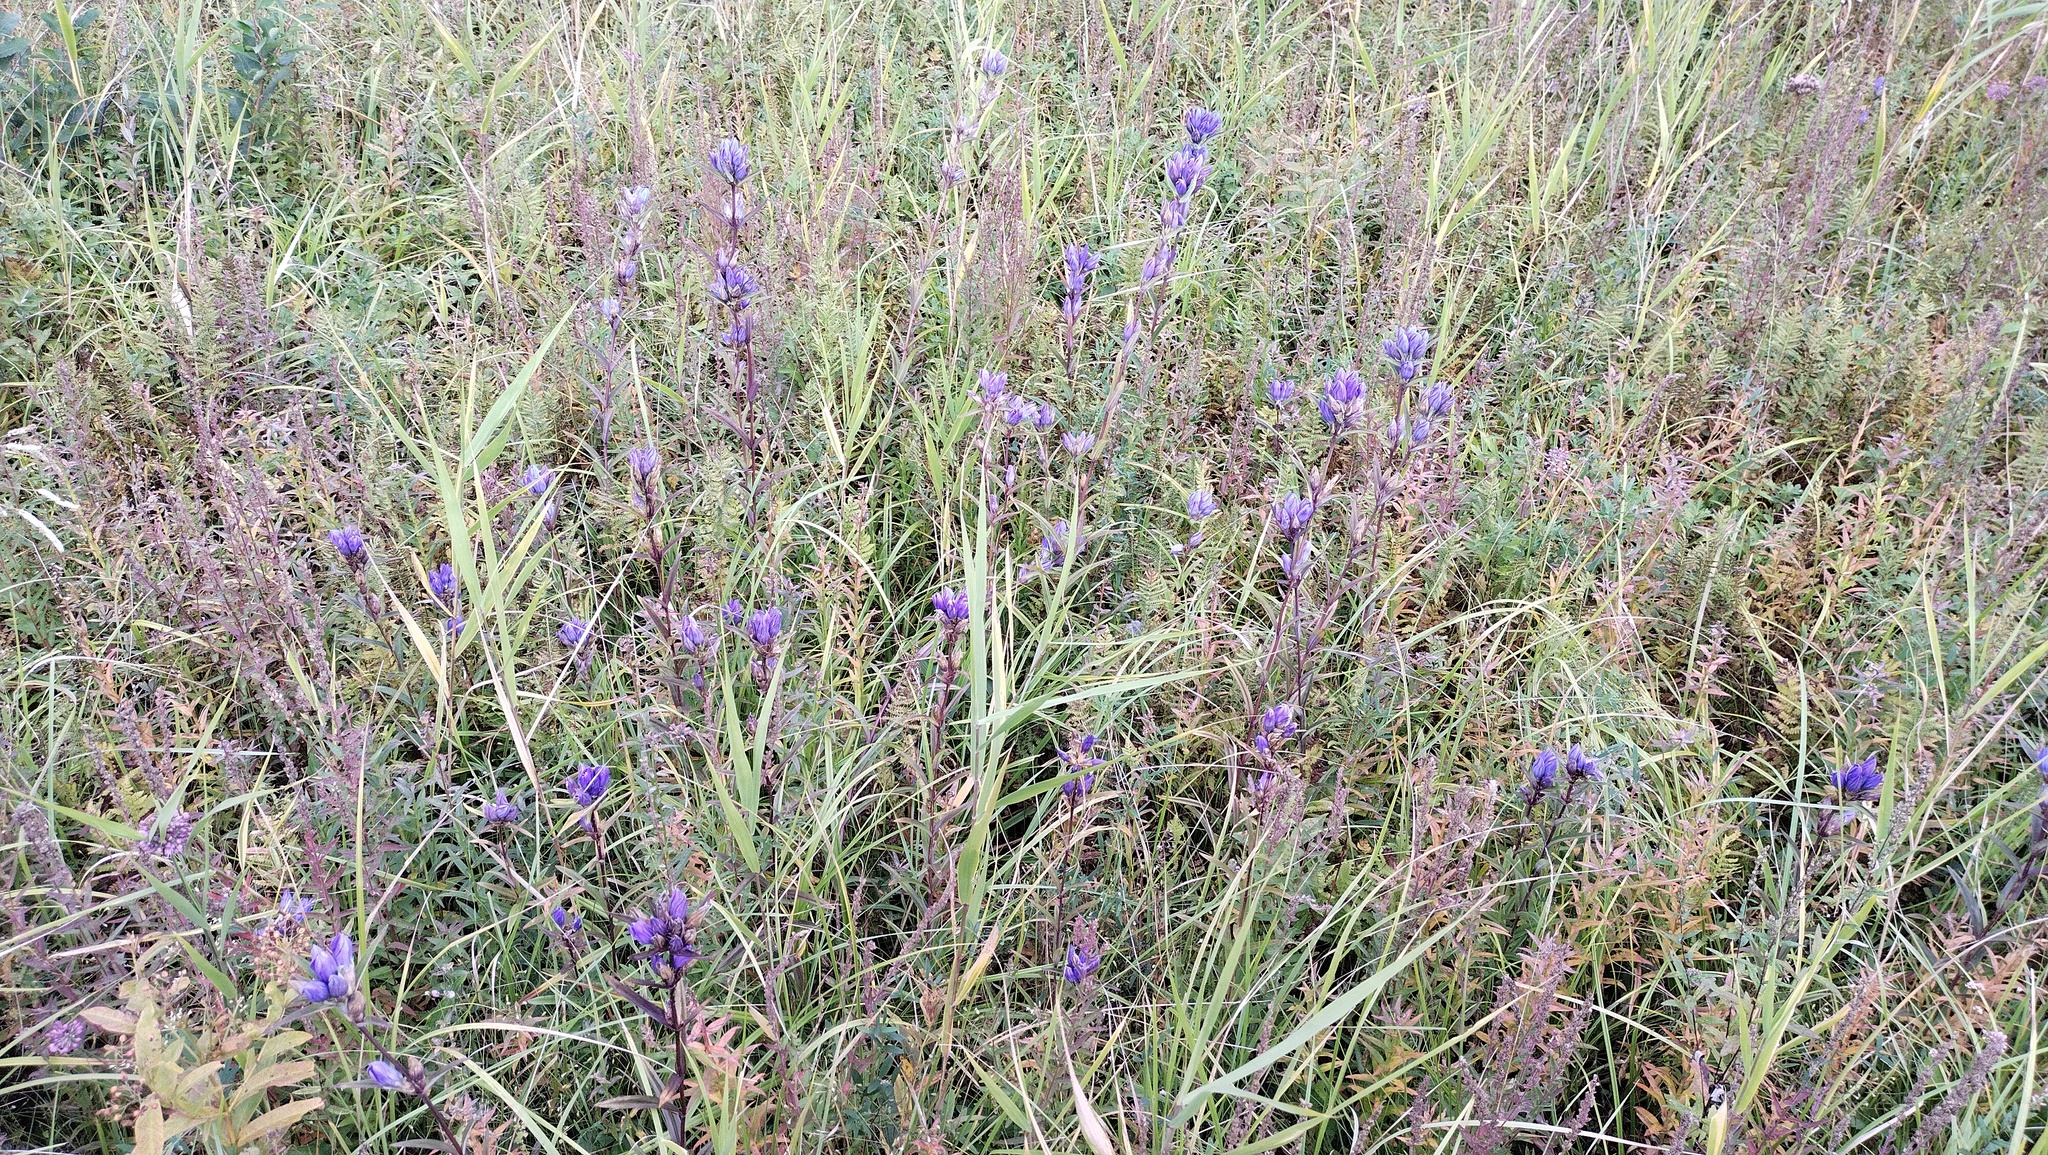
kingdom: Plantae
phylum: Tracheophyta
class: Magnoliopsida
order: Gentianales
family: Gentianaceae
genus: Gentiana
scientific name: Gentiana triflora
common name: Three-flower gentian
